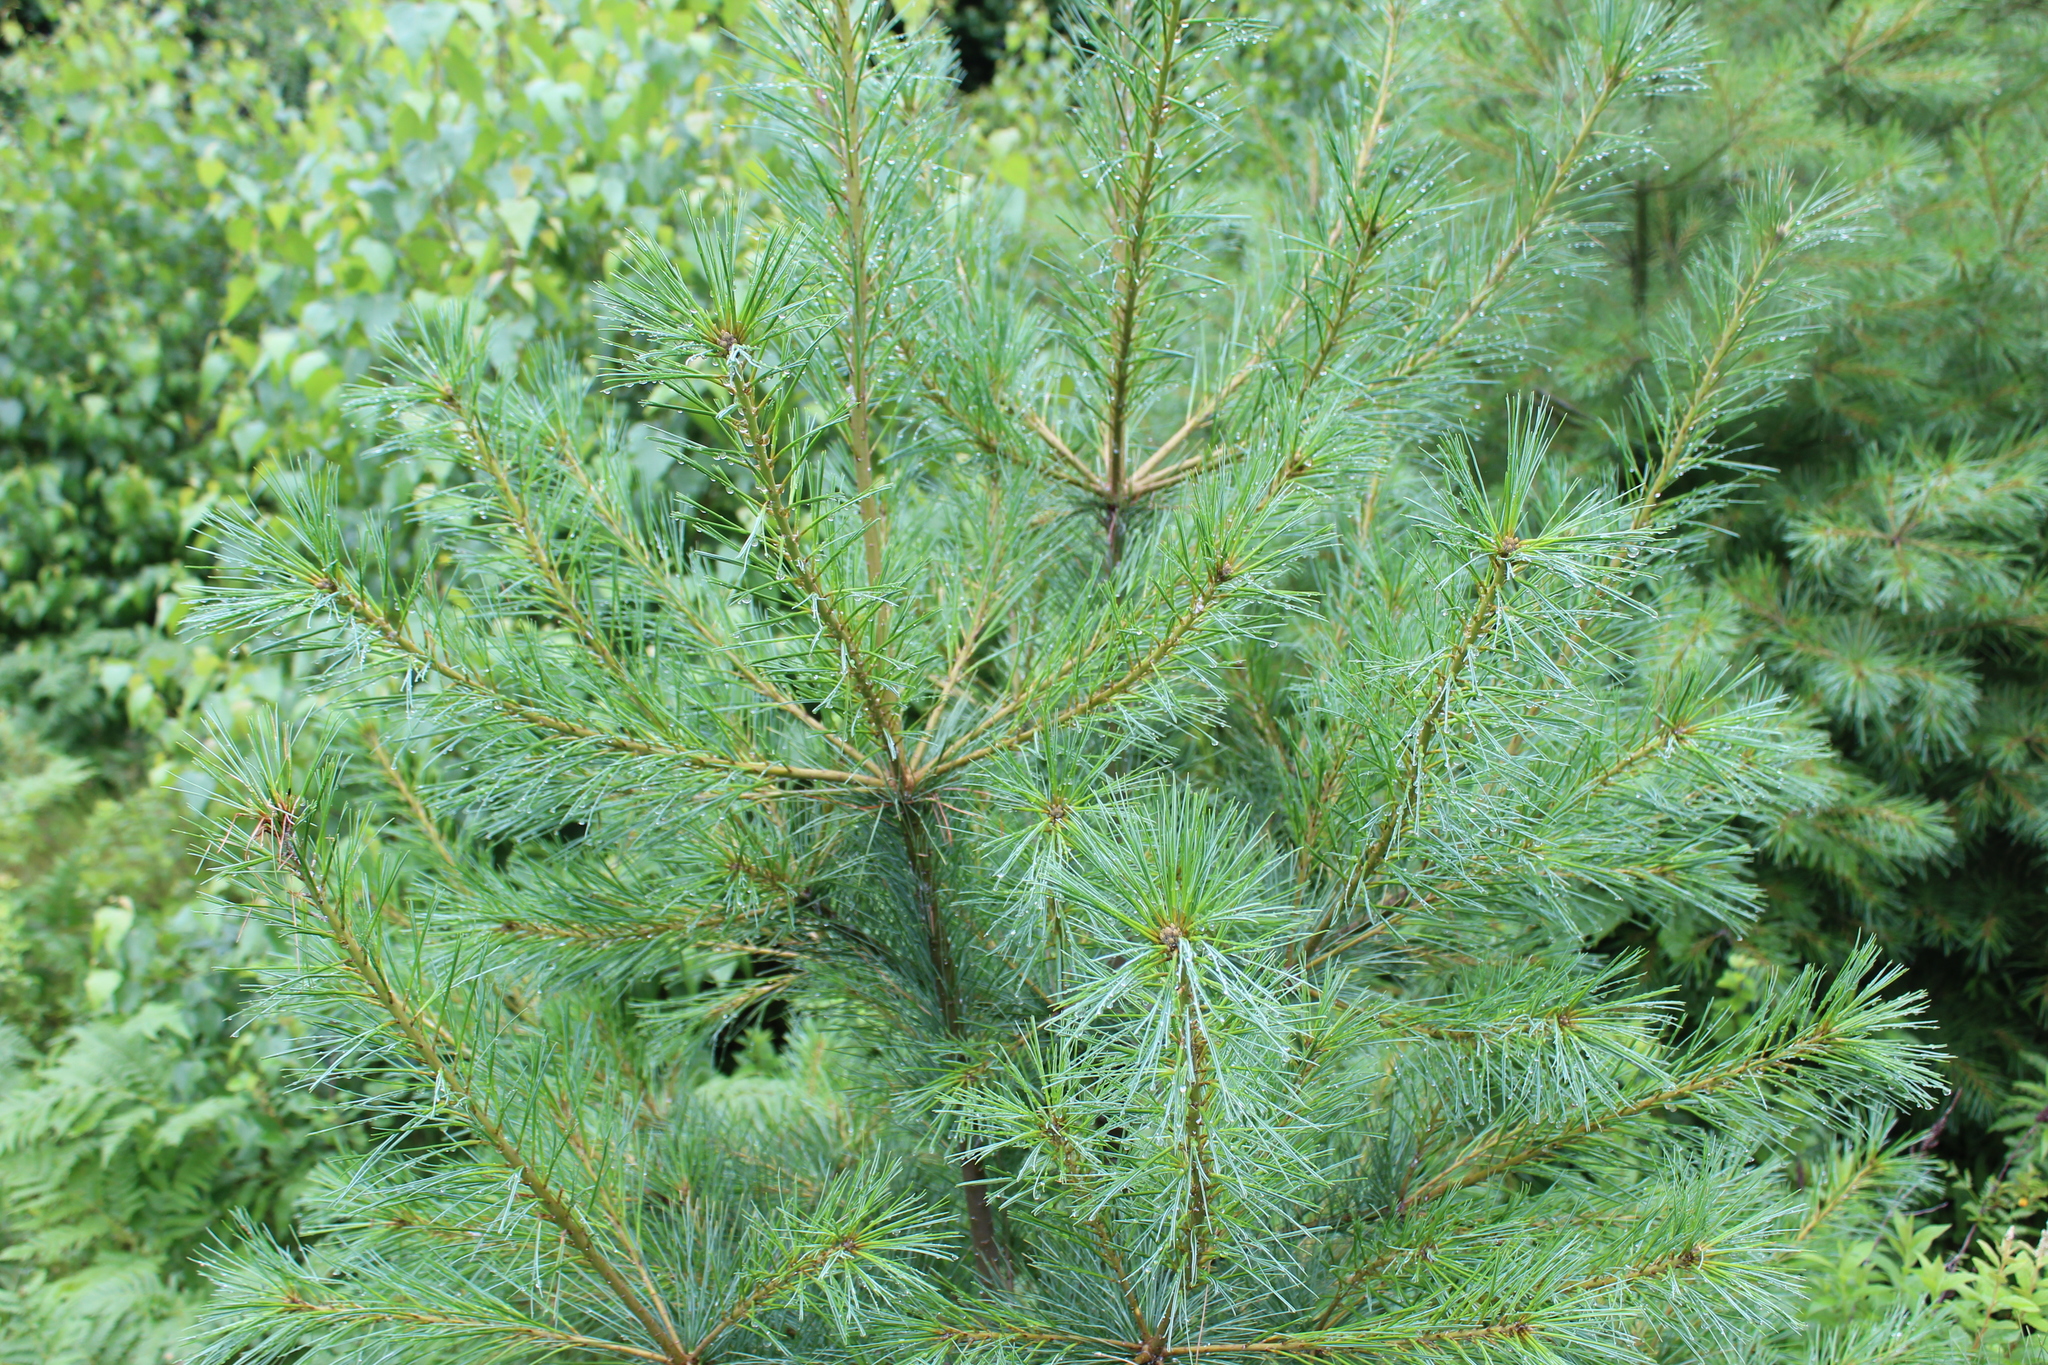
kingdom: Plantae
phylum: Tracheophyta
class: Pinopsida
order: Pinales
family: Pinaceae
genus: Pinus
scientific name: Pinus strobus
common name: Weymouth pine
